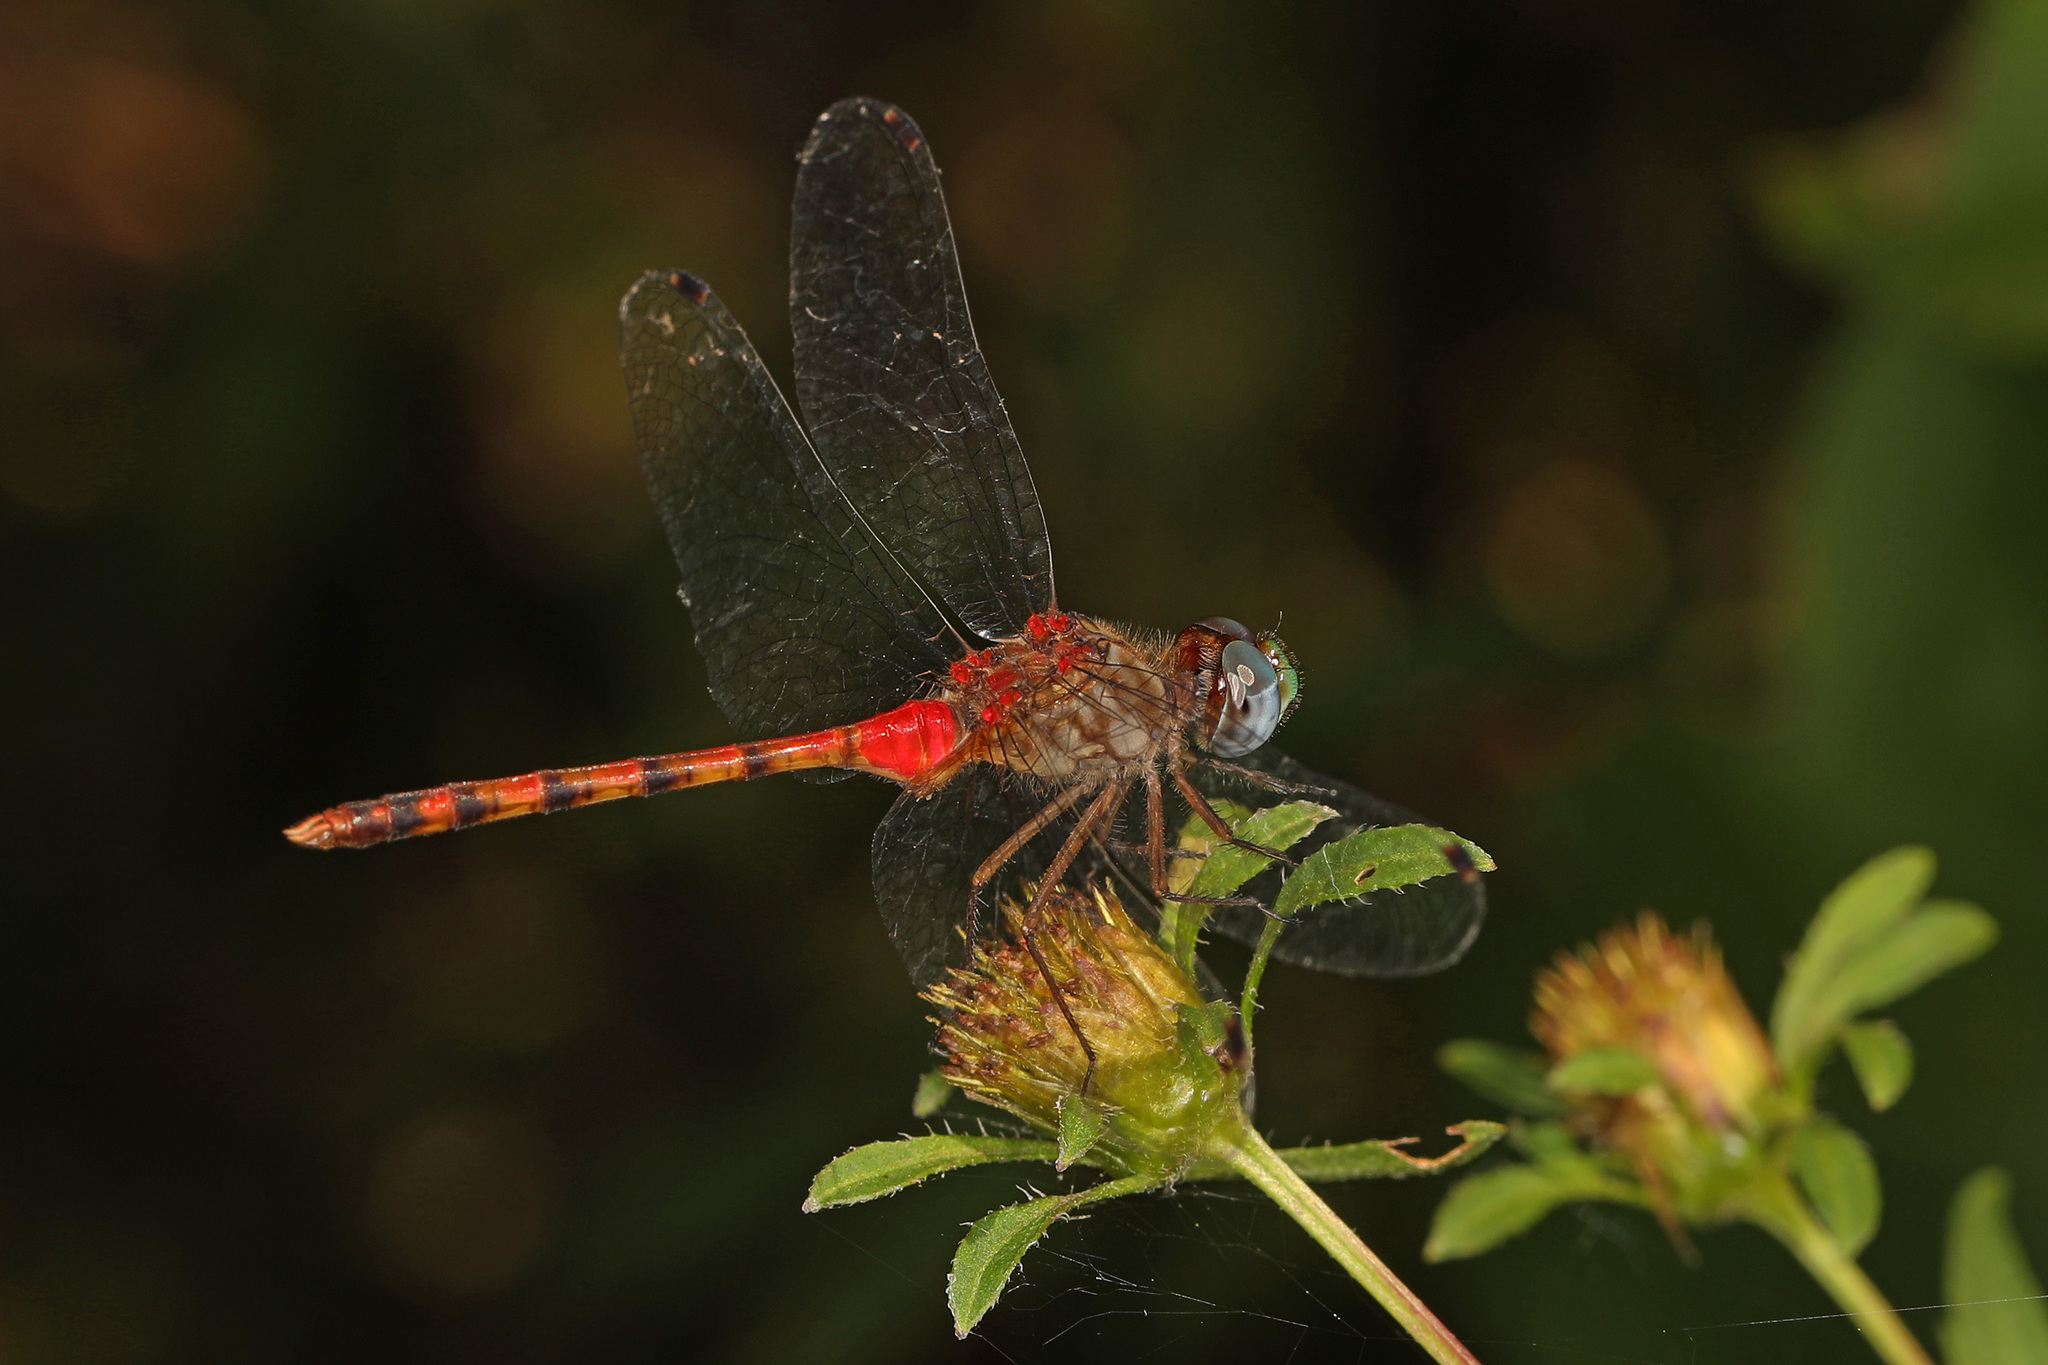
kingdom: Animalia
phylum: Arthropoda
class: Insecta
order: Odonata
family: Libellulidae
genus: Sympetrum
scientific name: Sympetrum ambiguum
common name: Blue-faced meadowhawk
